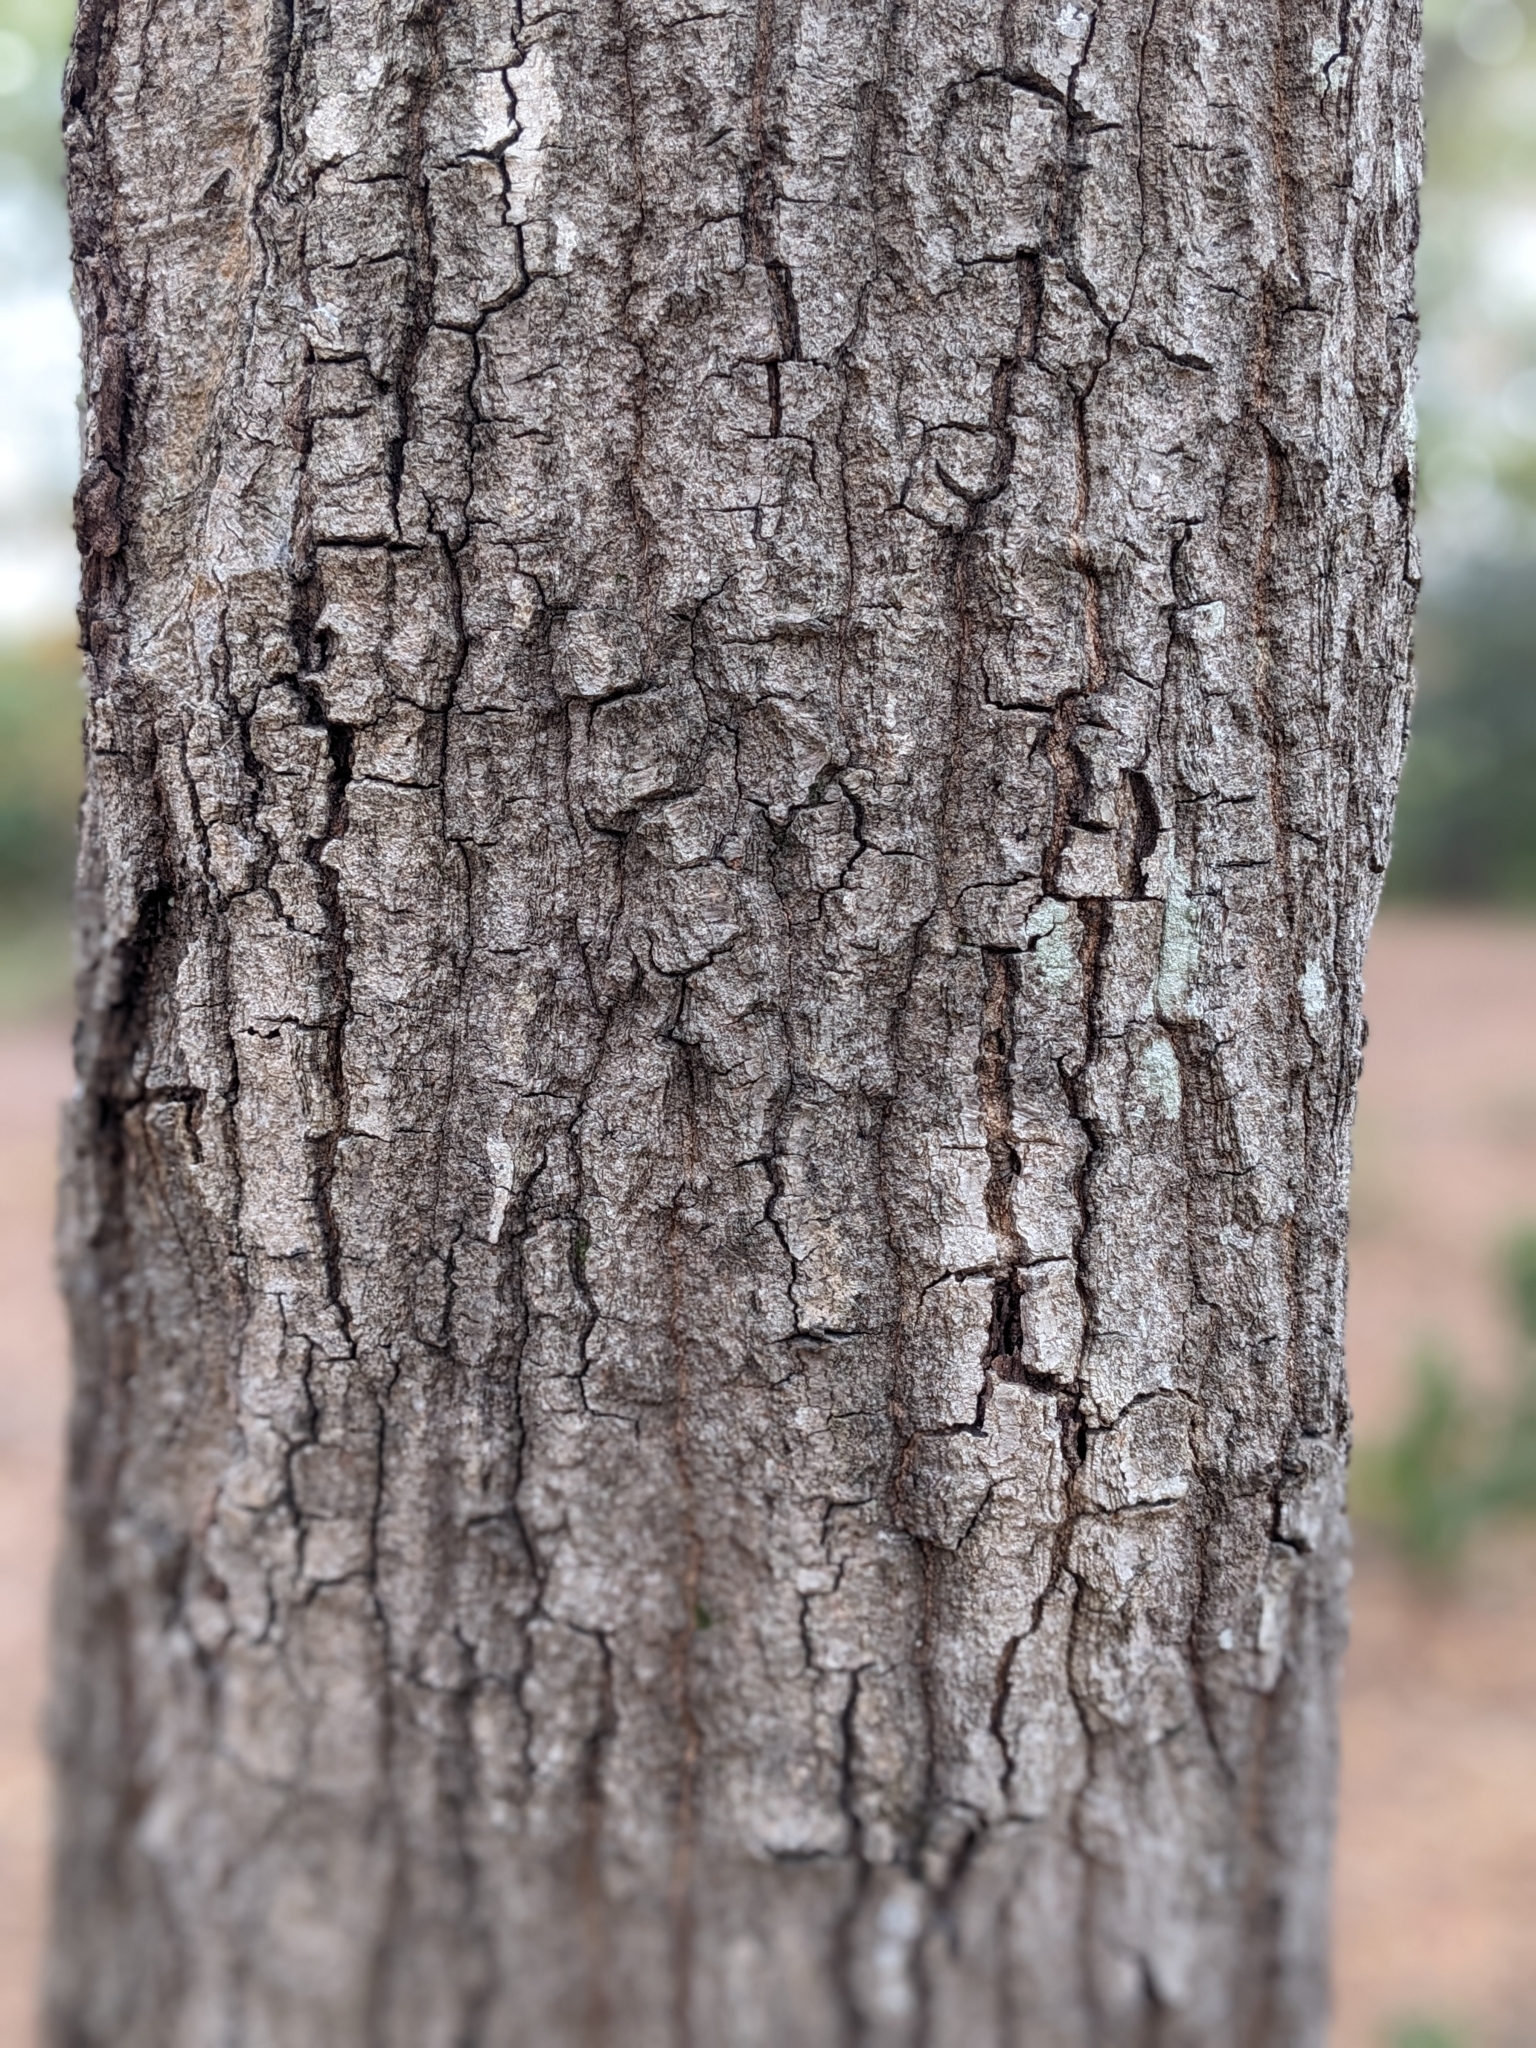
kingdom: Plantae
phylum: Tracheophyta
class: Magnoliopsida
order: Fagales
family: Fagaceae
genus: Quercus
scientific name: Quercus nigra
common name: Water oak
